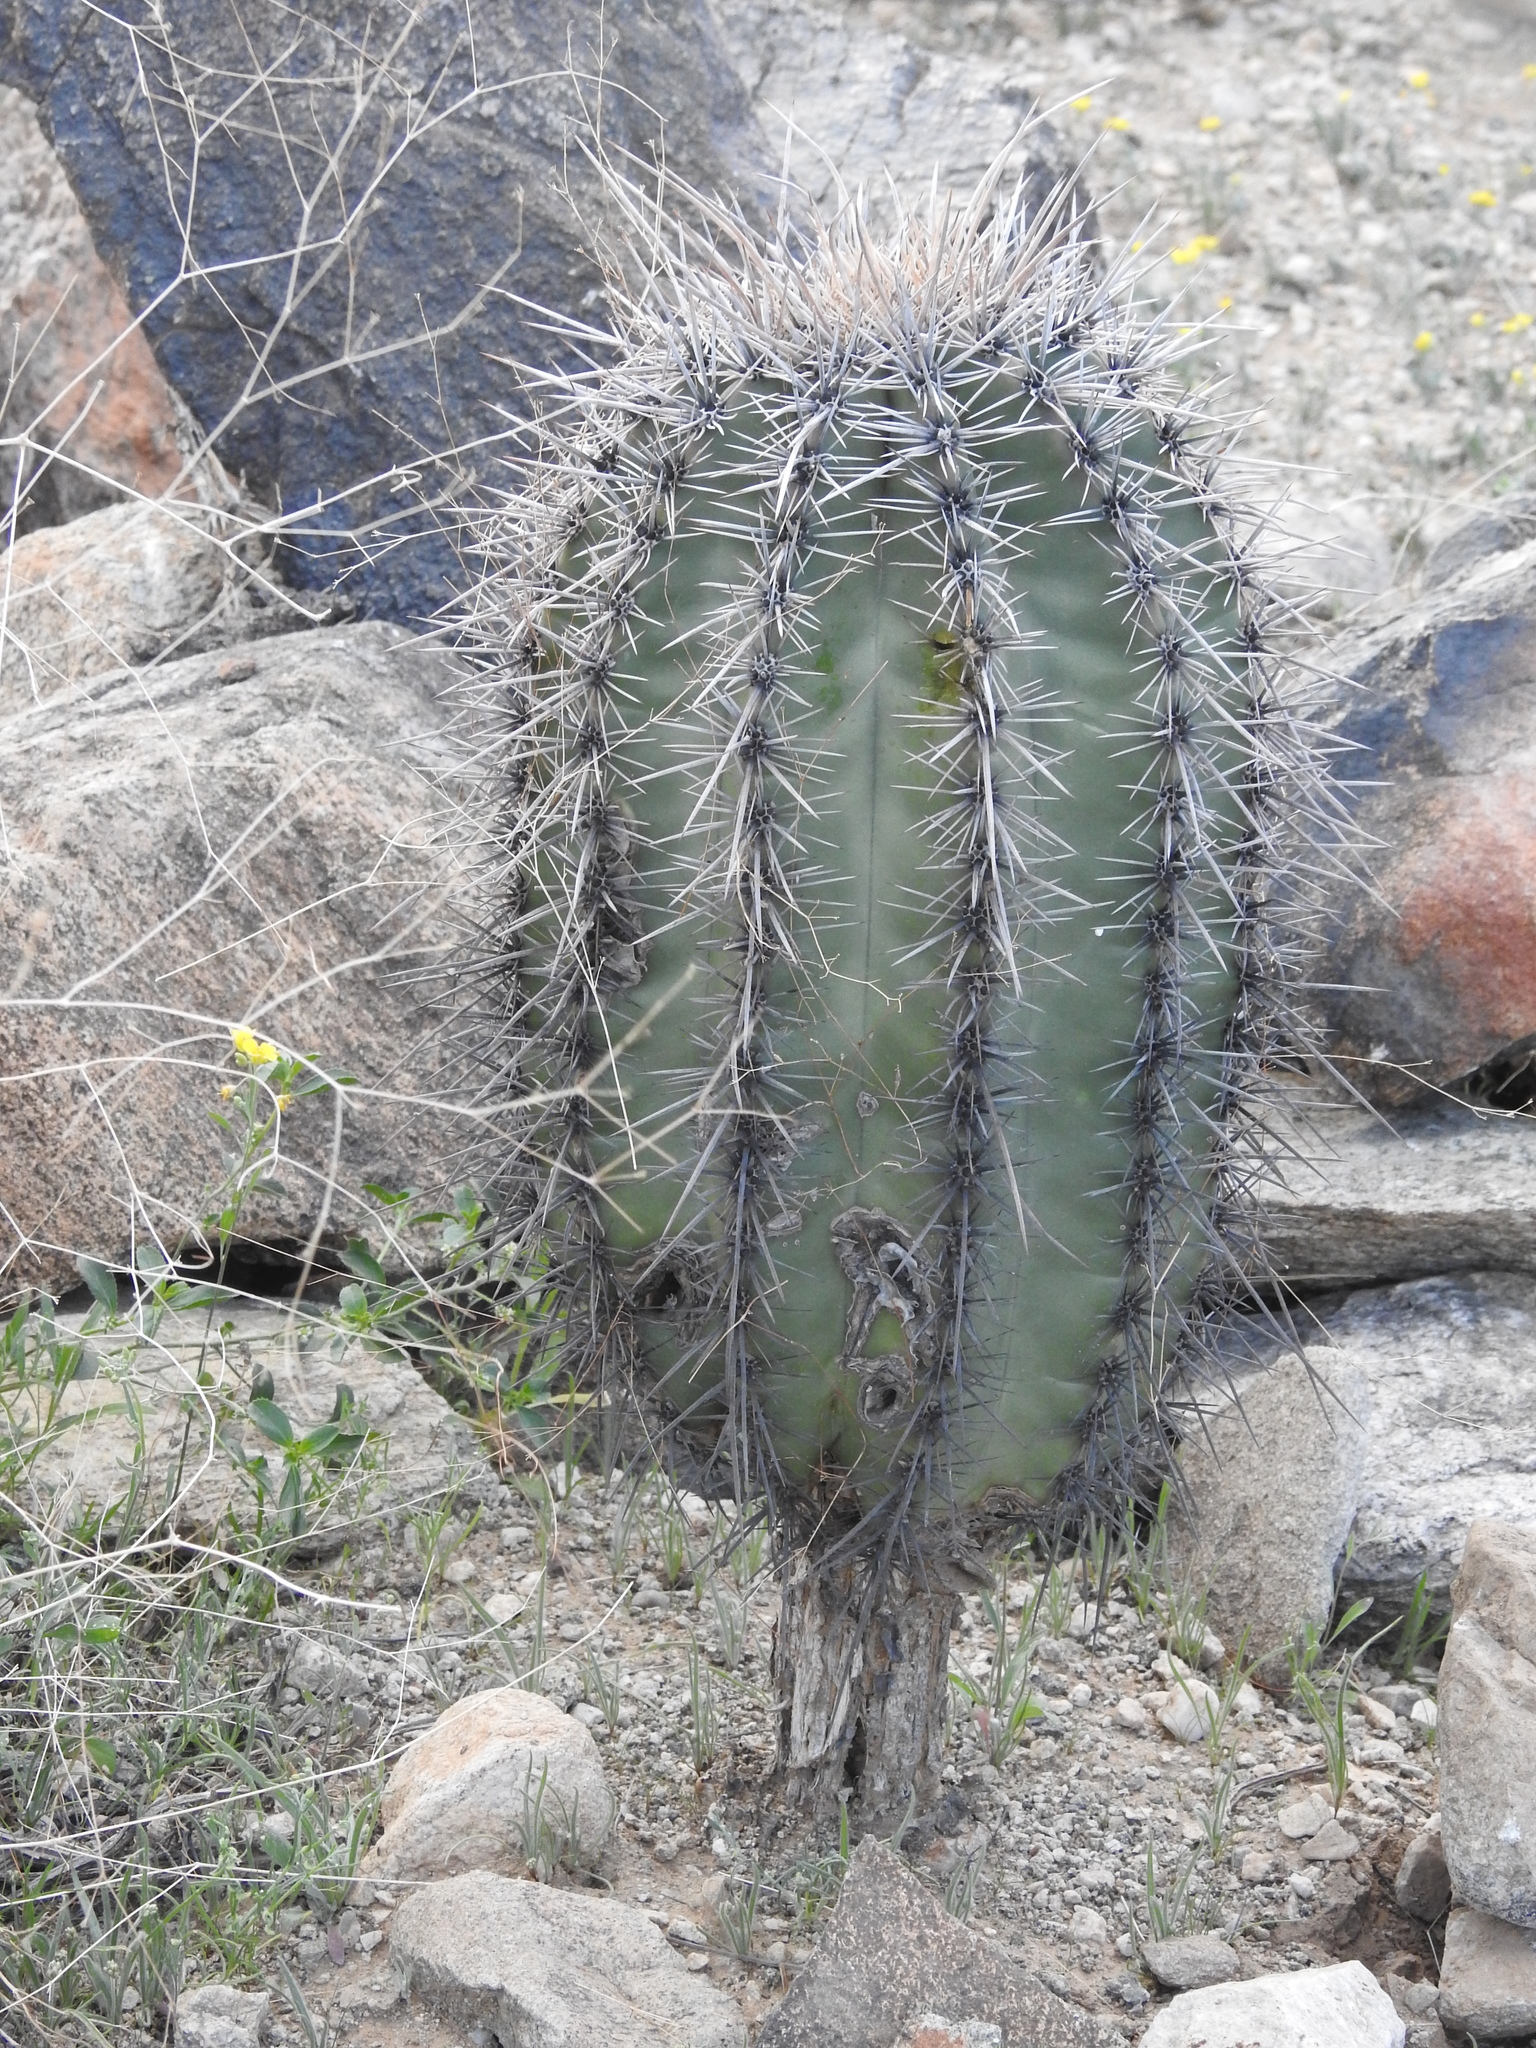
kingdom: Plantae
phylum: Tracheophyta
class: Magnoliopsida
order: Caryophyllales
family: Cactaceae
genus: Carnegiea
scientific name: Carnegiea gigantea
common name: Saguaro
